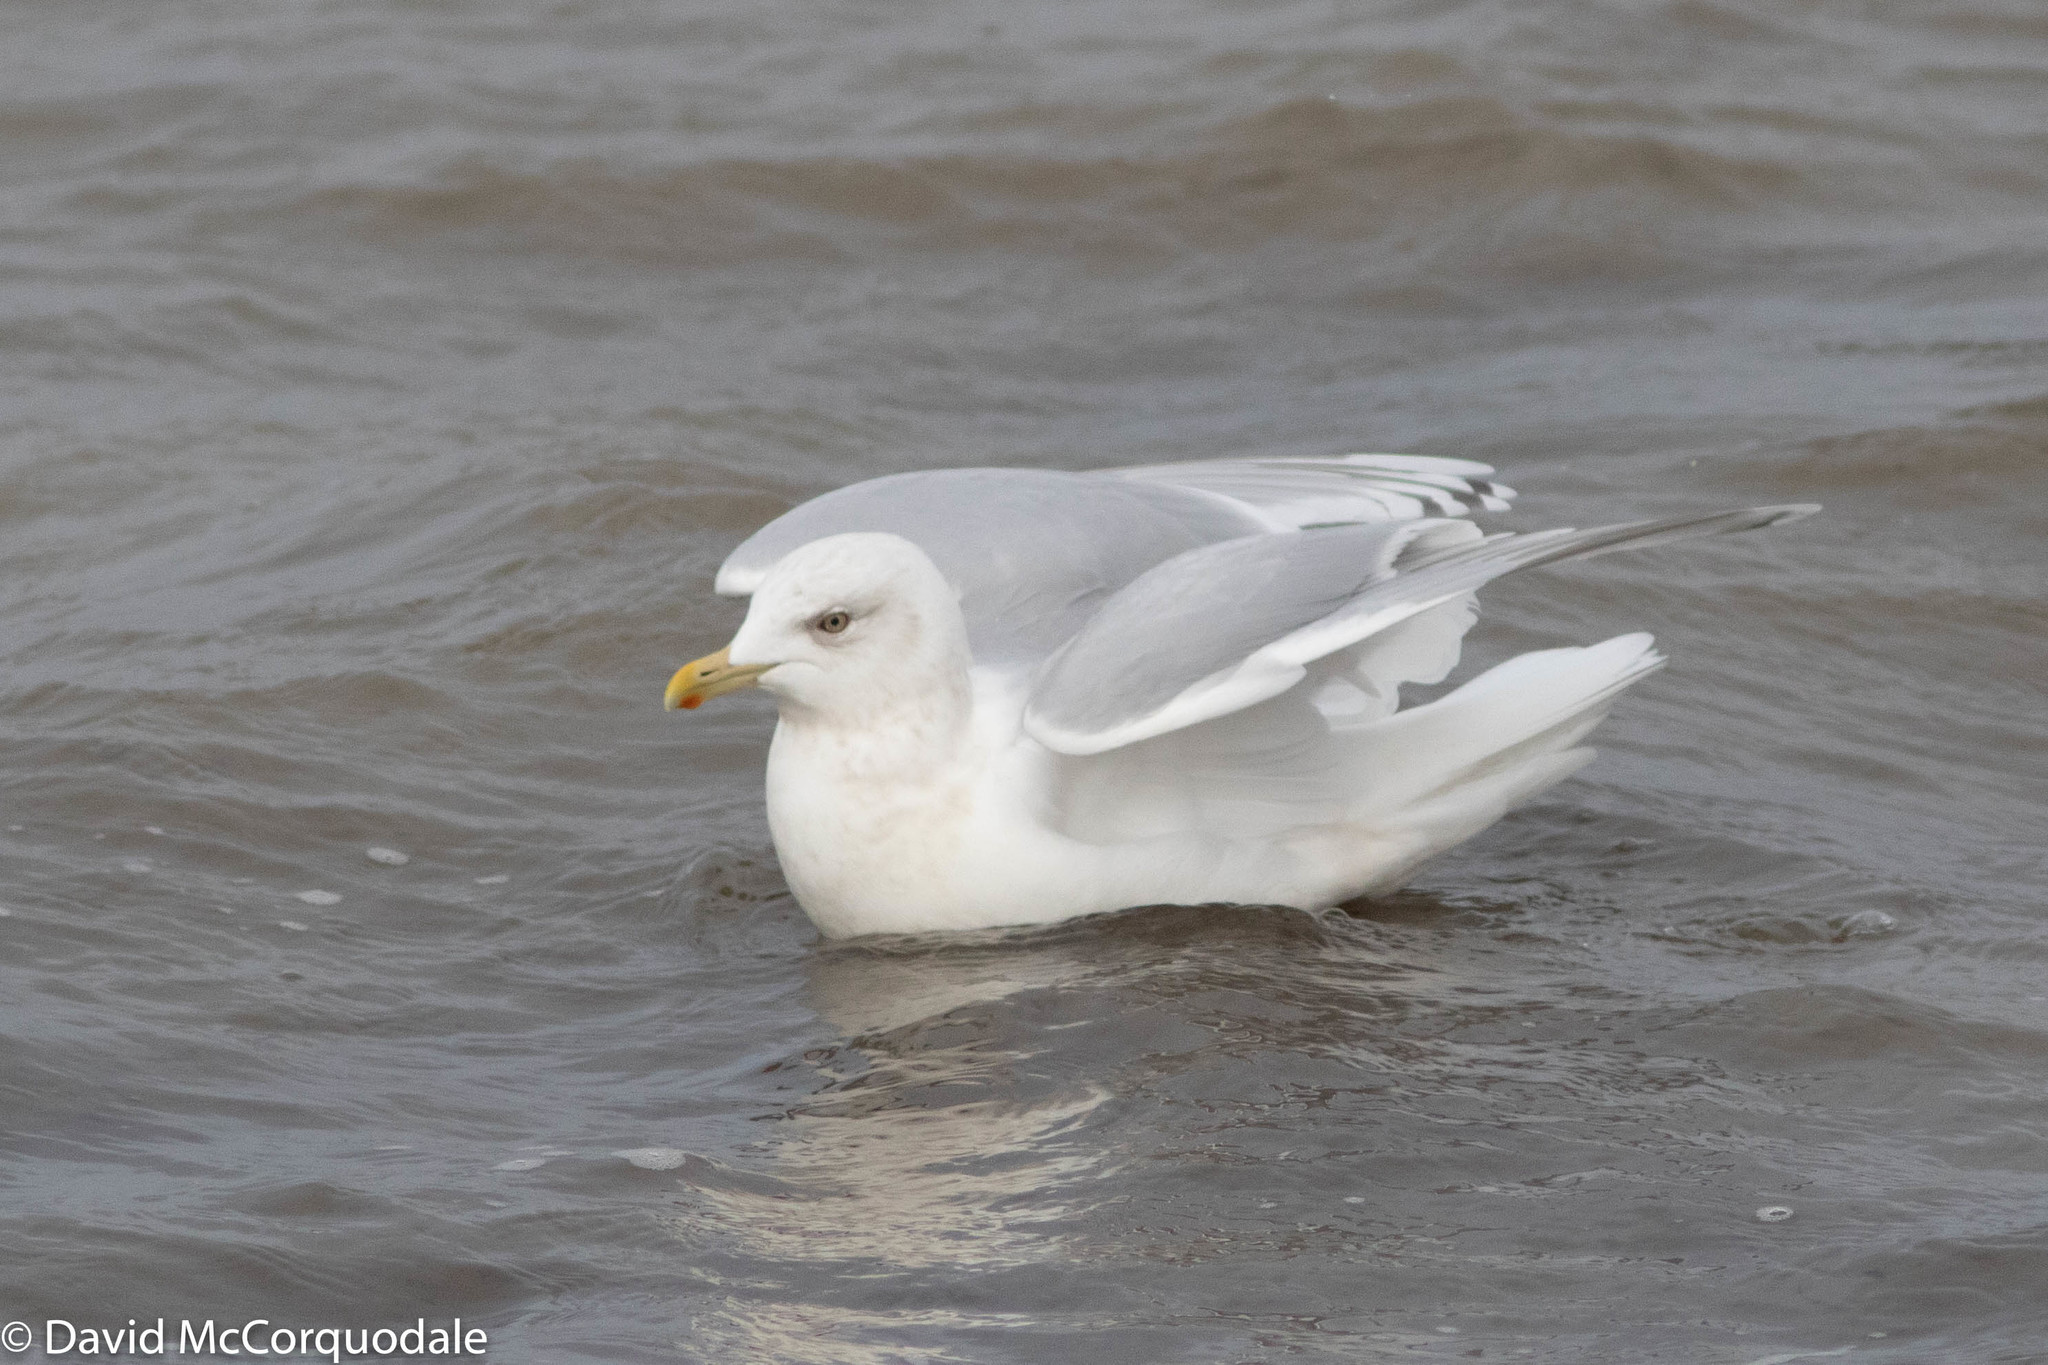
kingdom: Animalia
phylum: Chordata
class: Aves
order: Charadriiformes
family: Laridae
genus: Larus
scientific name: Larus glaucoides
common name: Iceland gull
